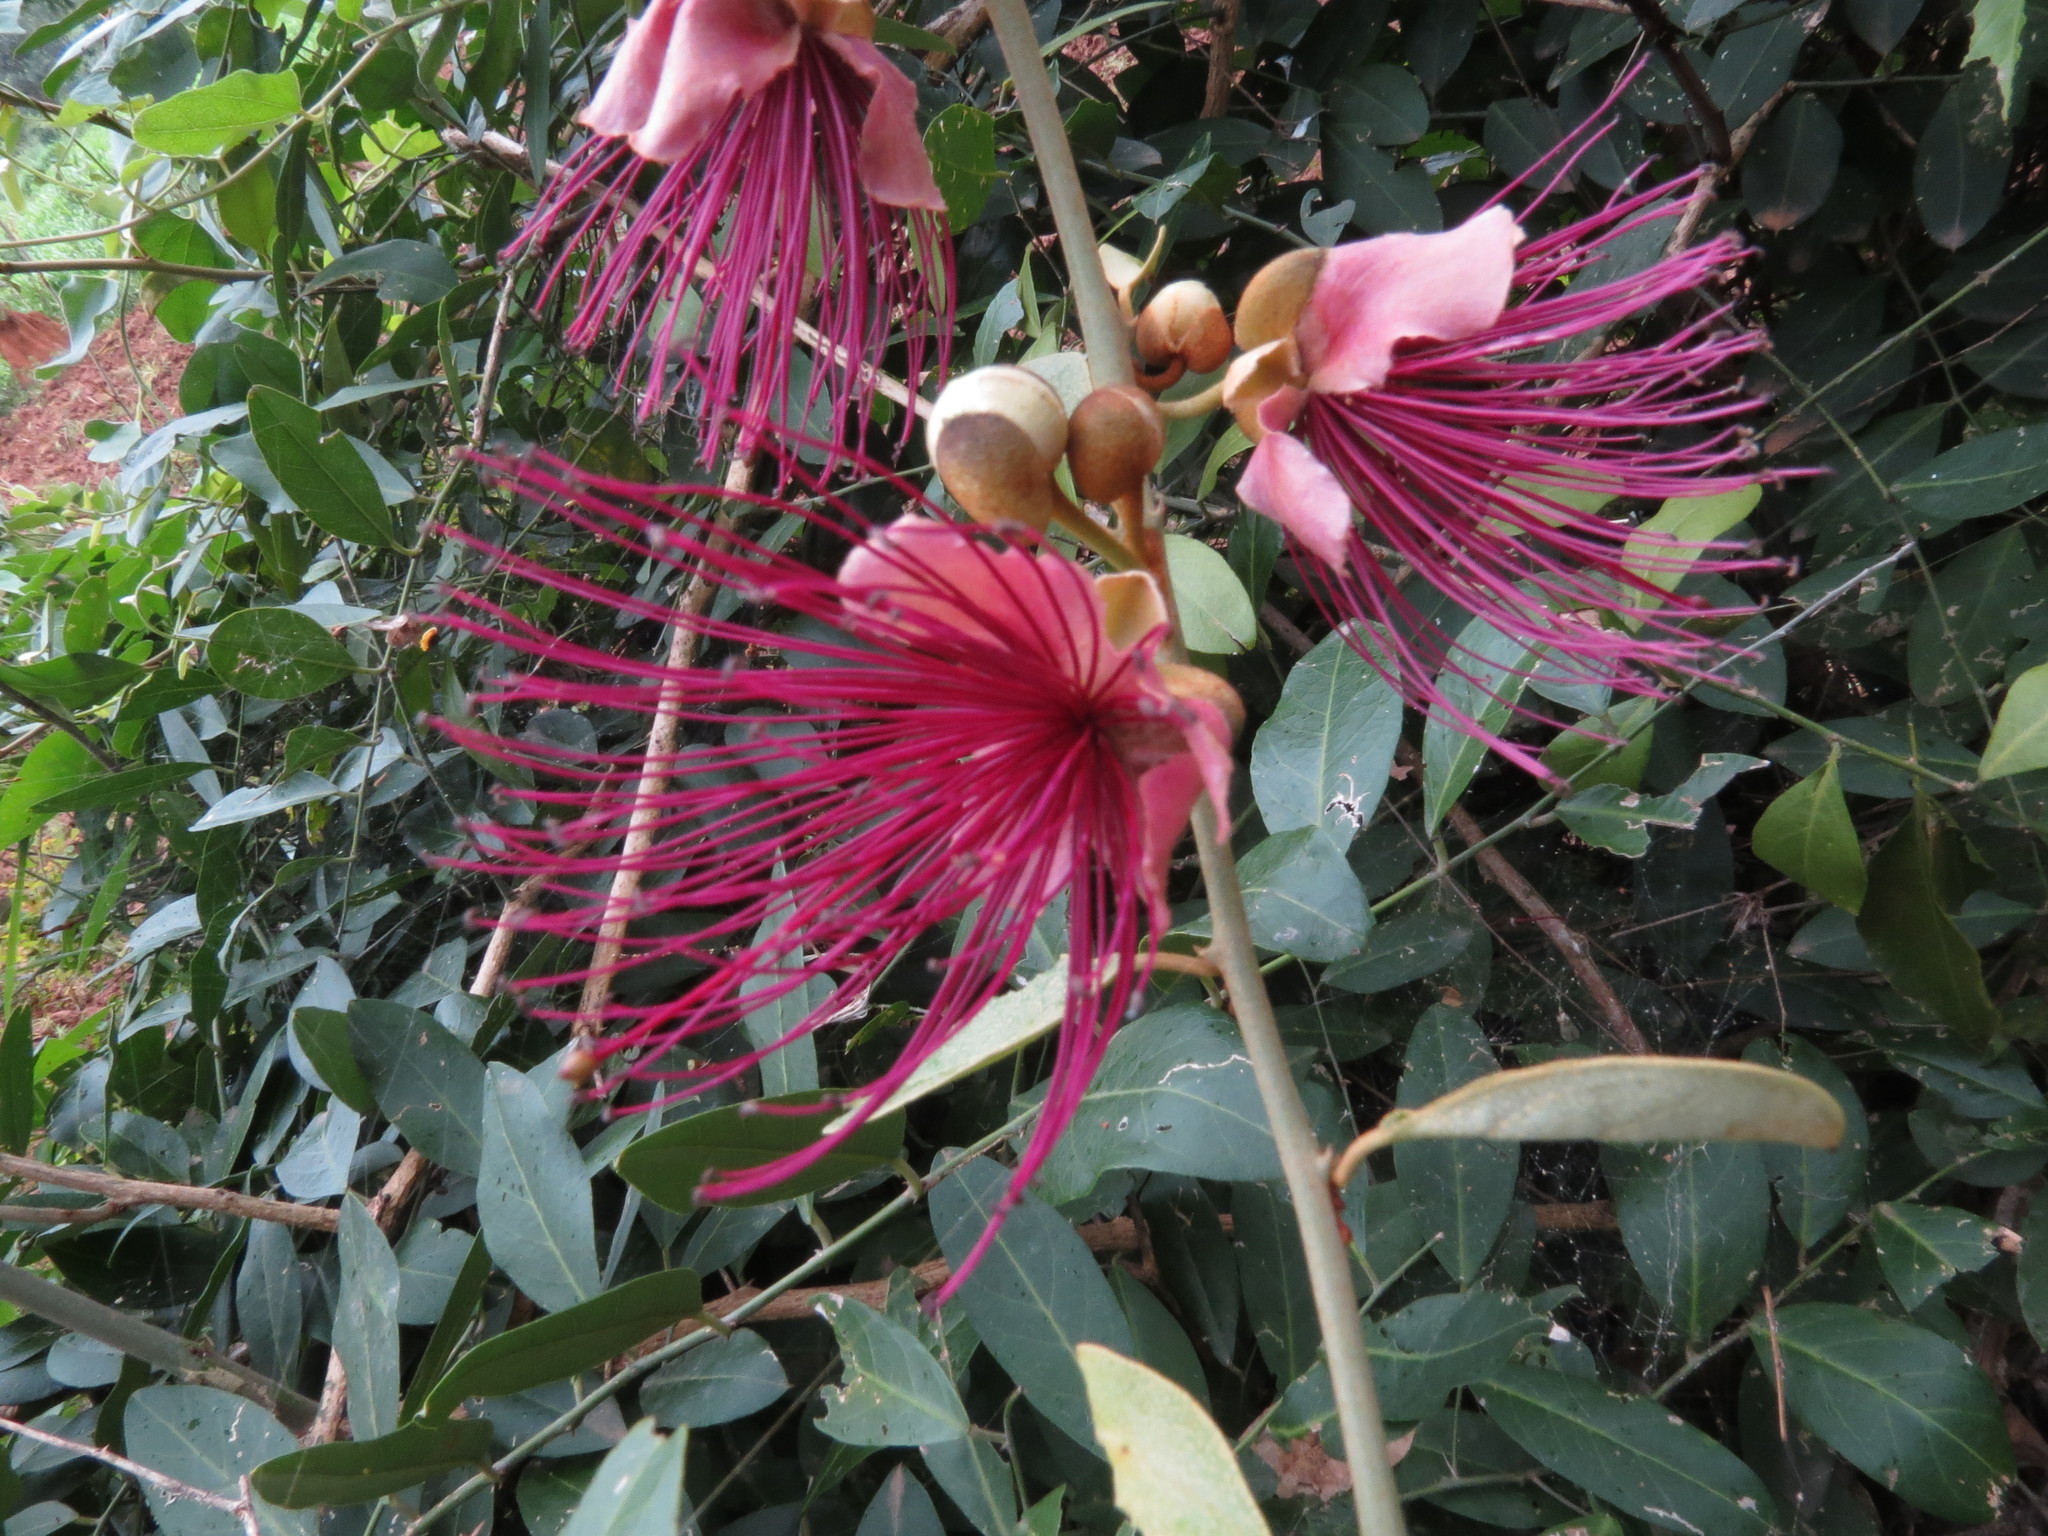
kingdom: Plantae
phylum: Tracheophyta
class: Magnoliopsida
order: Brassicales
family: Capparaceae
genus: Capparis
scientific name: Capparis zeylanica
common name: Ceylon caper
